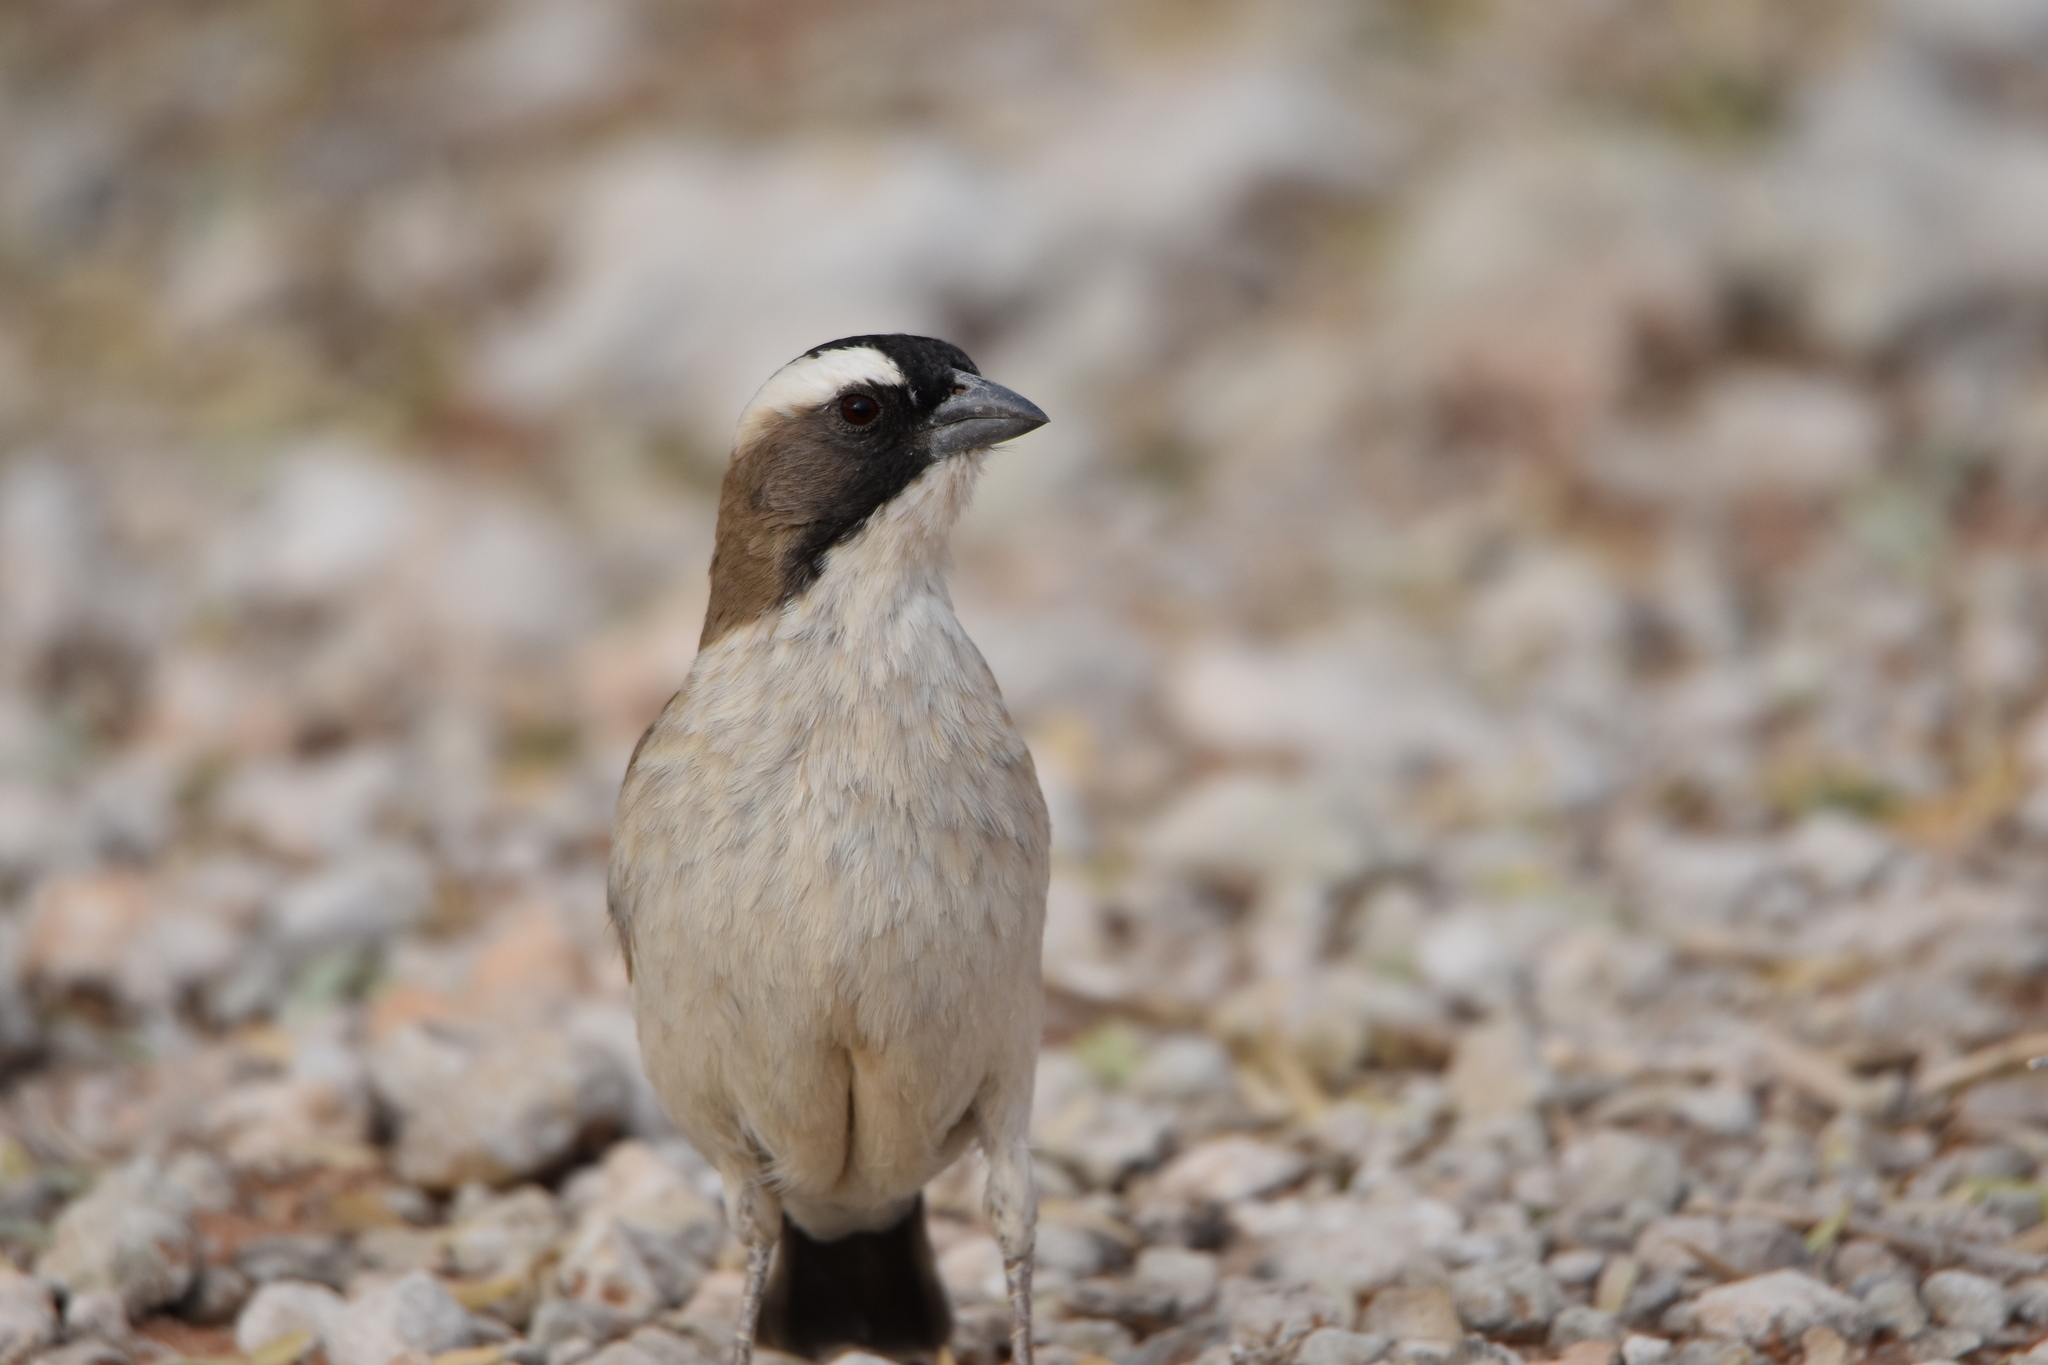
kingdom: Animalia
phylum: Chordata
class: Aves
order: Passeriformes
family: Passeridae
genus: Plocepasser
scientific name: Plocepasser mahali
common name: White-browed sparrow-weaver
